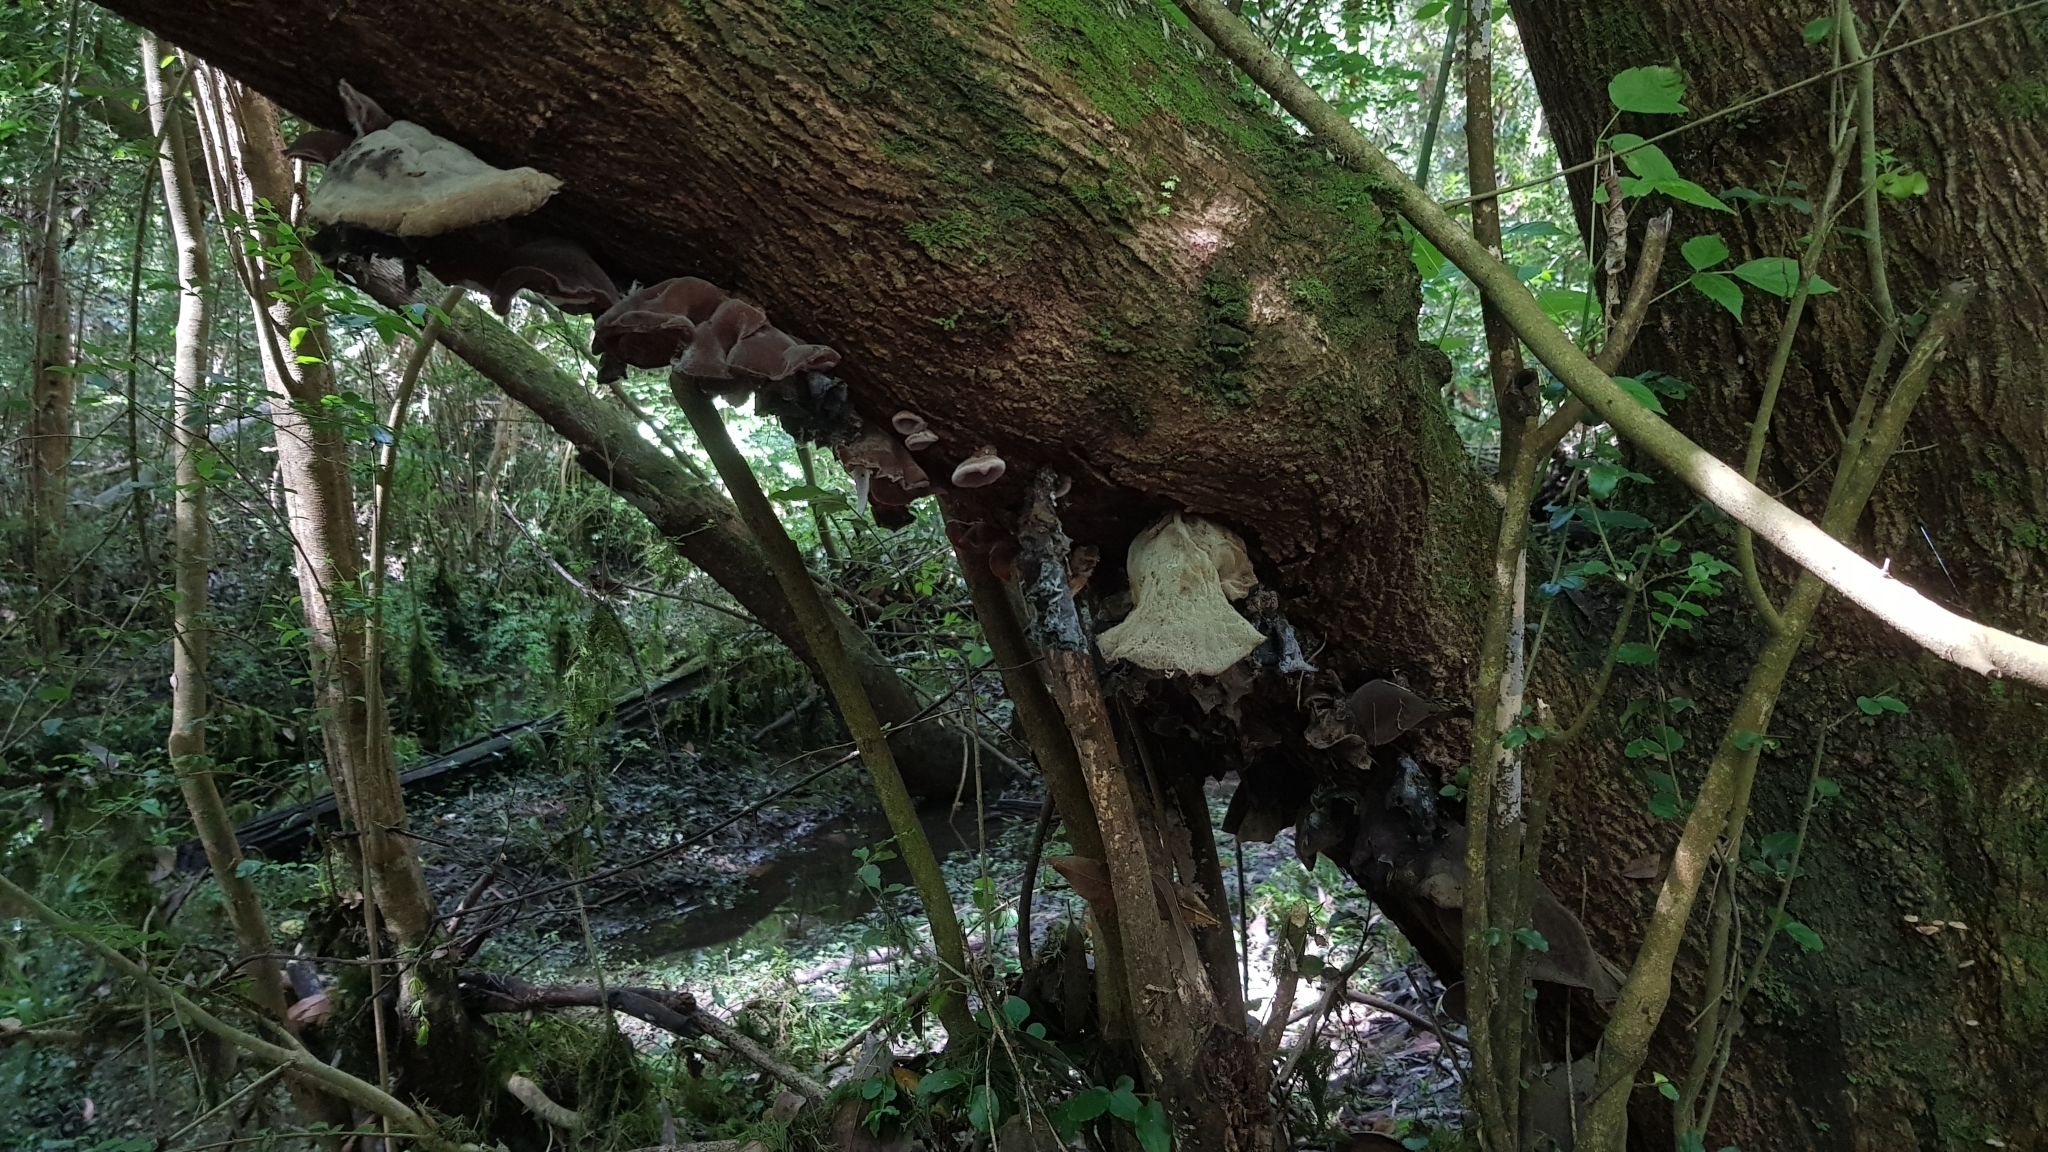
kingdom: Fungi
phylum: Basidiomycota
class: Agaricomycetes
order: Auriculariales
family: Auriculariaceae
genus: Auricularia
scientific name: Auricularia cornea
